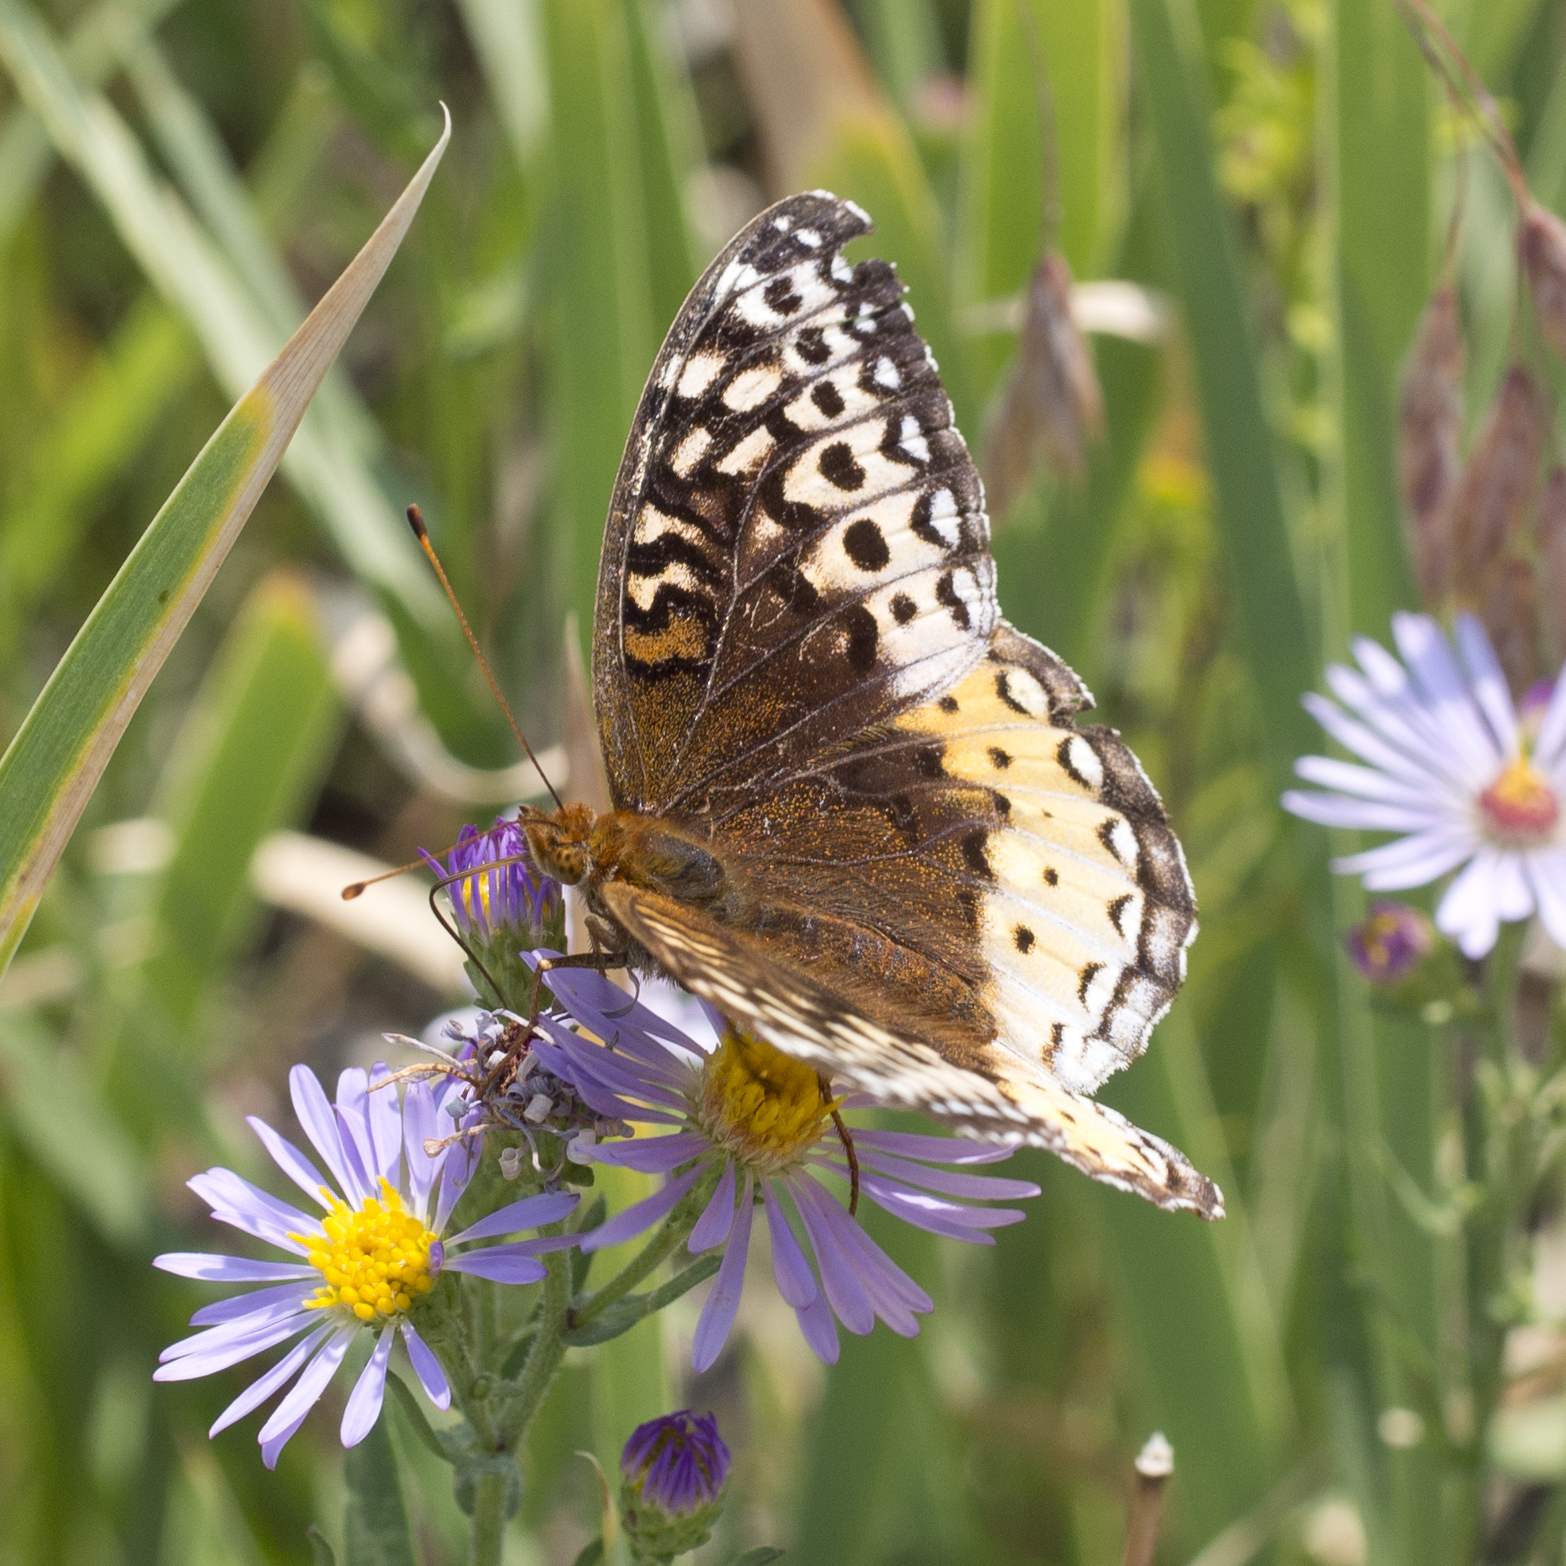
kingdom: Animalia
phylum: Arthropoda
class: Insecta
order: Lepidoptera
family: Nymphalidae
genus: Speyeria
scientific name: Speyeria cybele
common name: Great spangled fritillary
